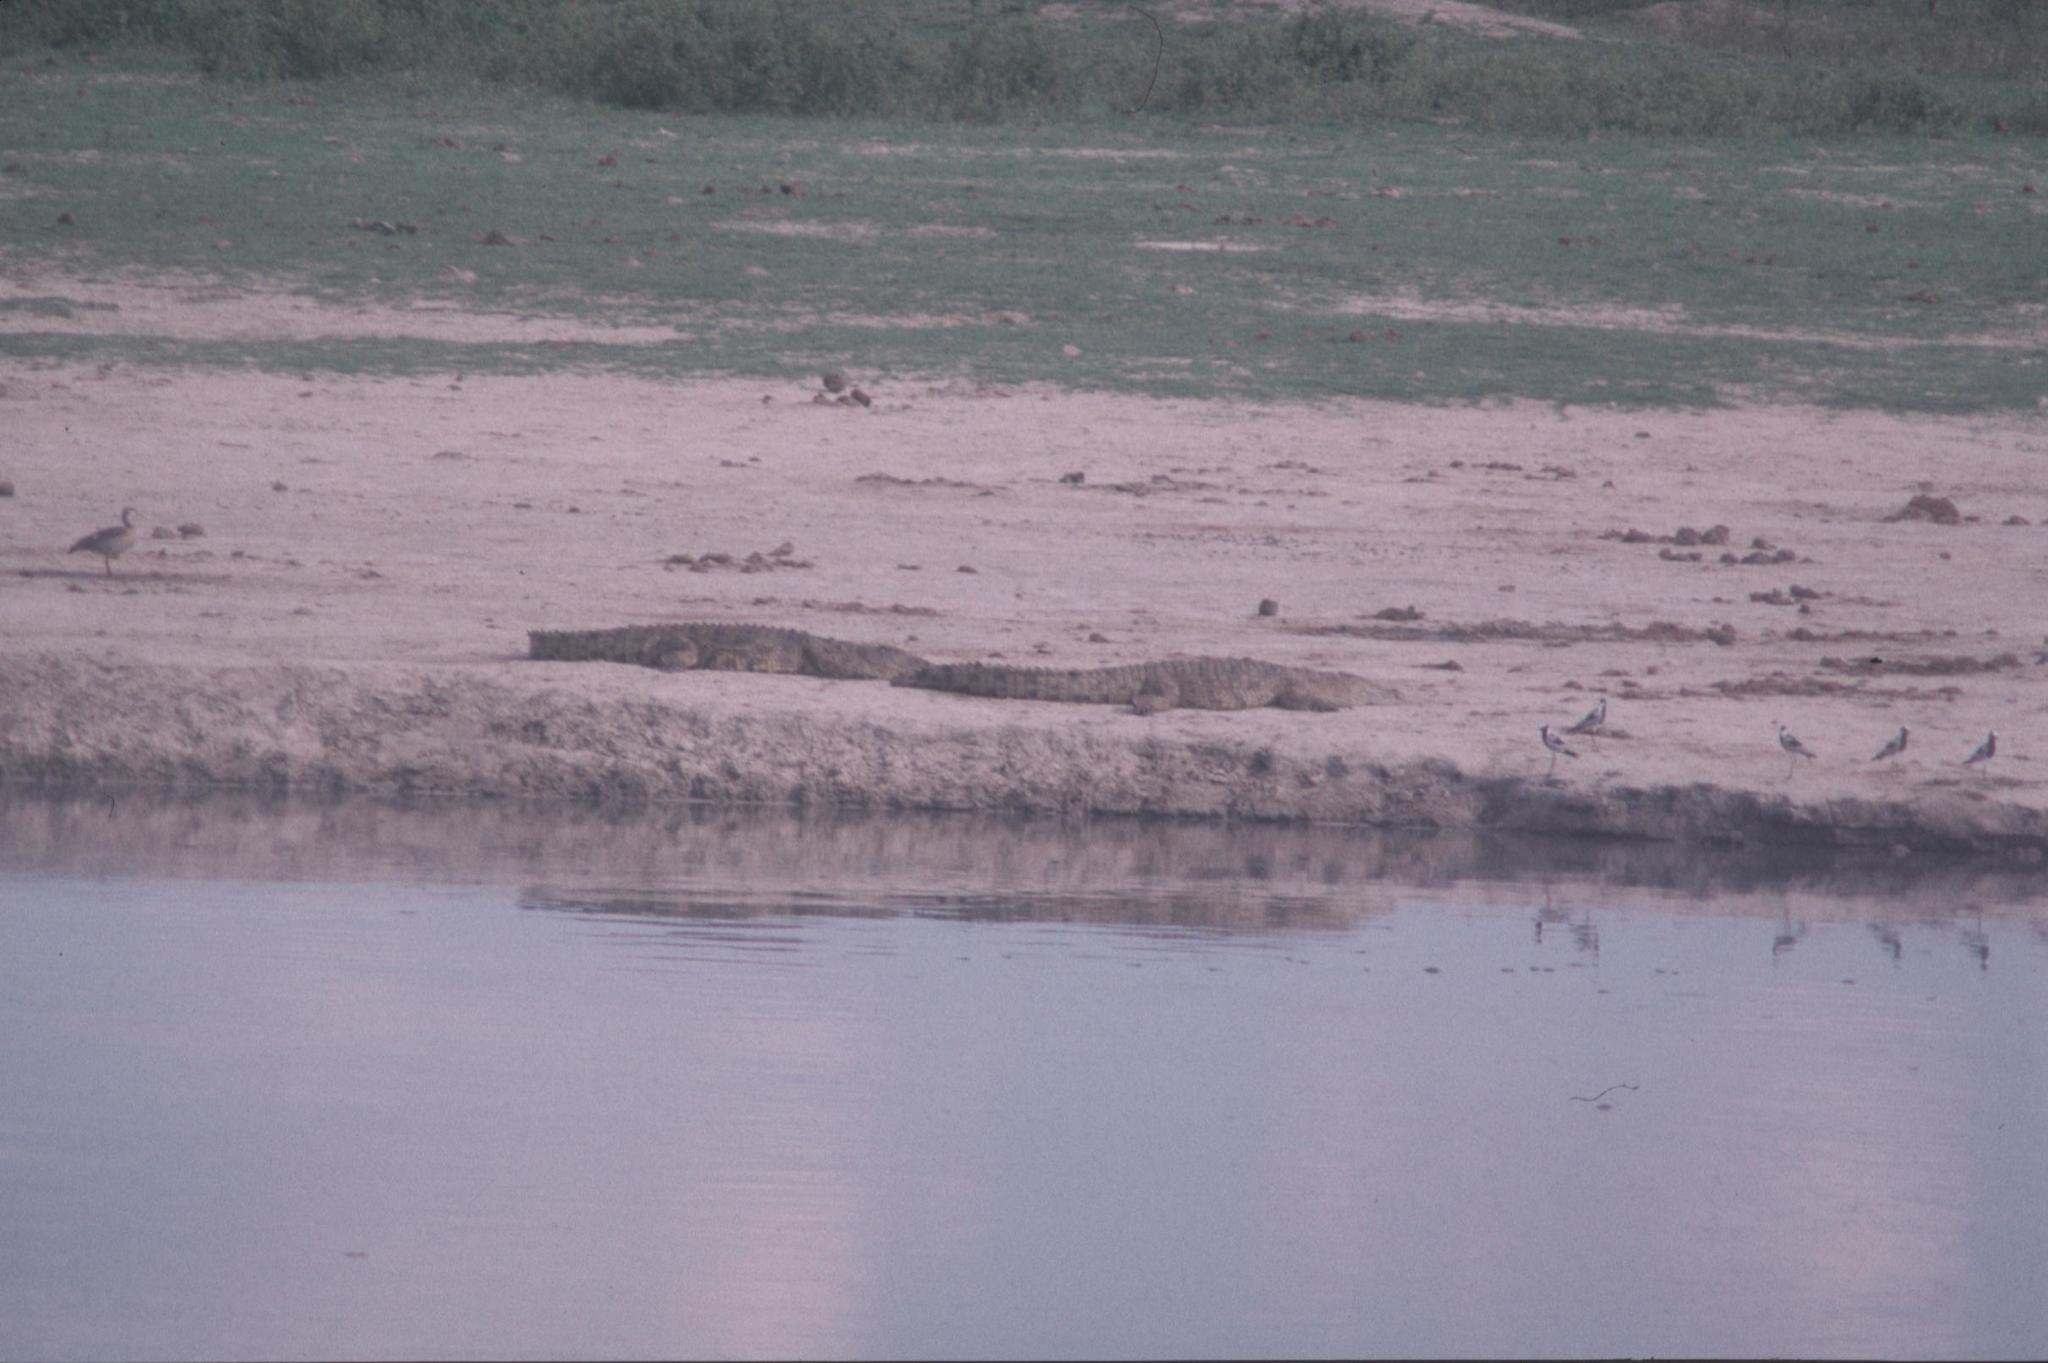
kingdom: Animalia
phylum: Chordata
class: Crocodylia
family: Crocodylidae
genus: Crocodylus
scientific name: Crocodylus niloticus
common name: Nile crocodile
